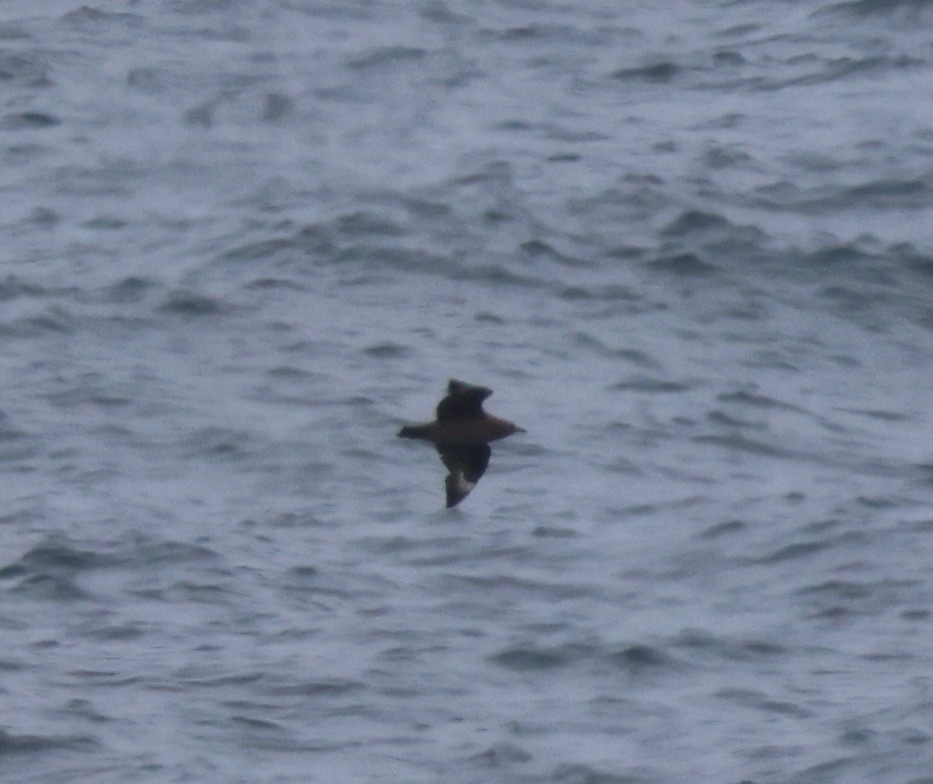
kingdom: Animalia
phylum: Chordata
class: Aves
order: Charadriiformes
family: Stercorariidae
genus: Stercorarius
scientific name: Stercorarius skua
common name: Great skua
